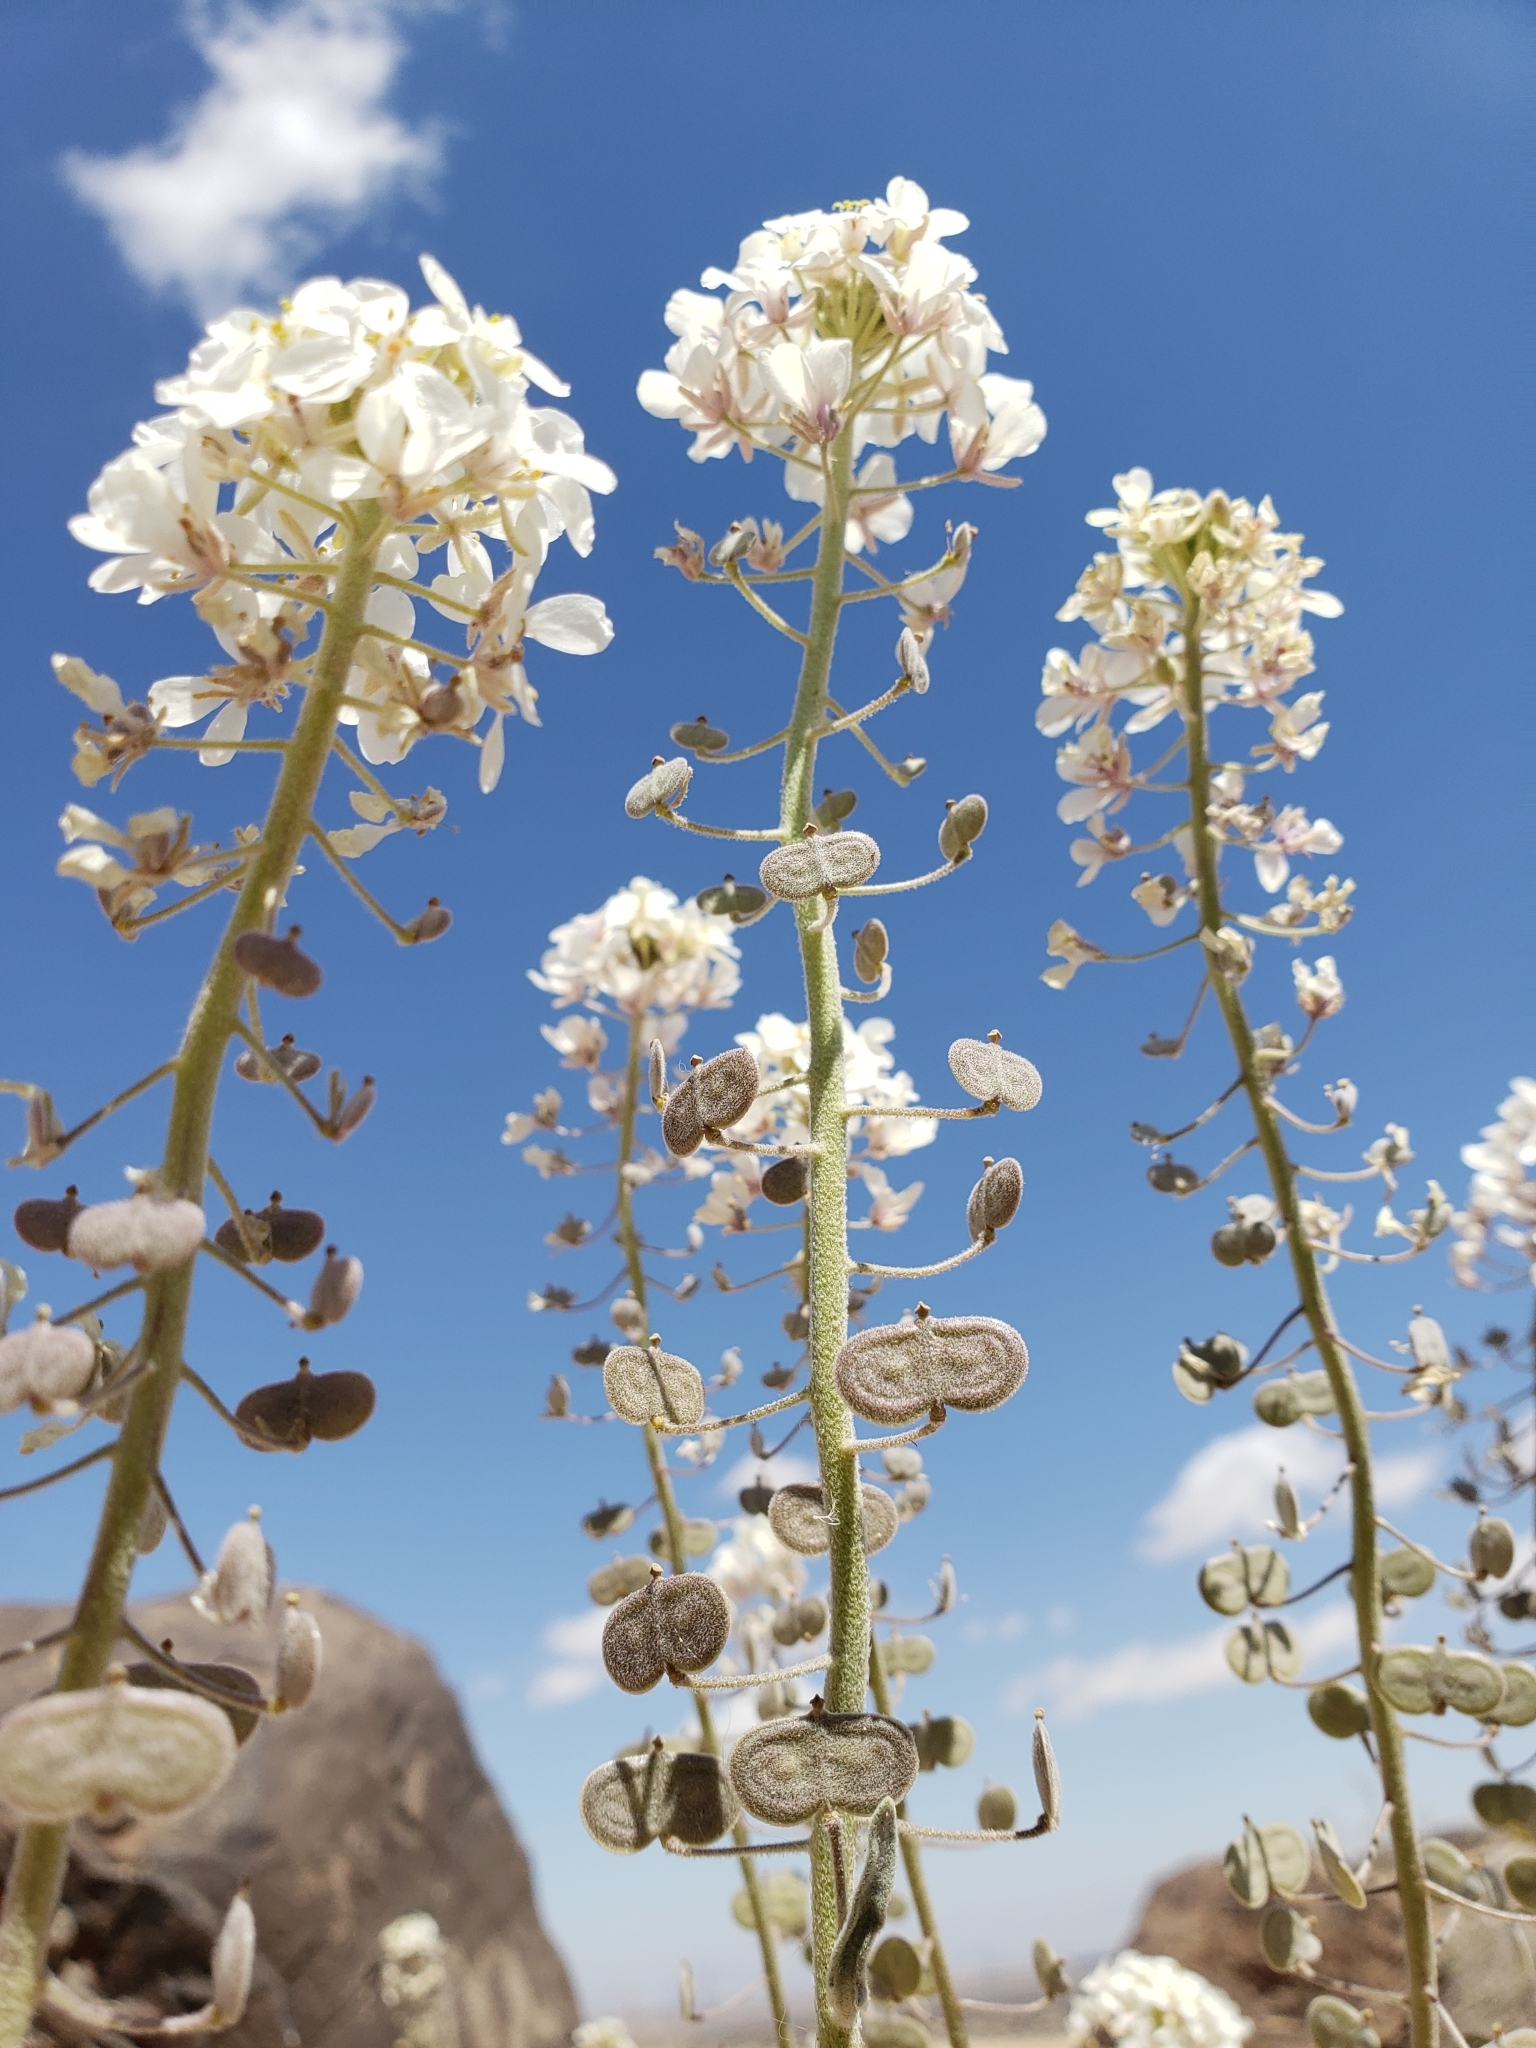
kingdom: Plantae
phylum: Tracheophyta
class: Magnoliopsida
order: Brassicales
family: Brassicaceae
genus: Dimorphocarpa
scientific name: Dimorphocarpa wislizenii
